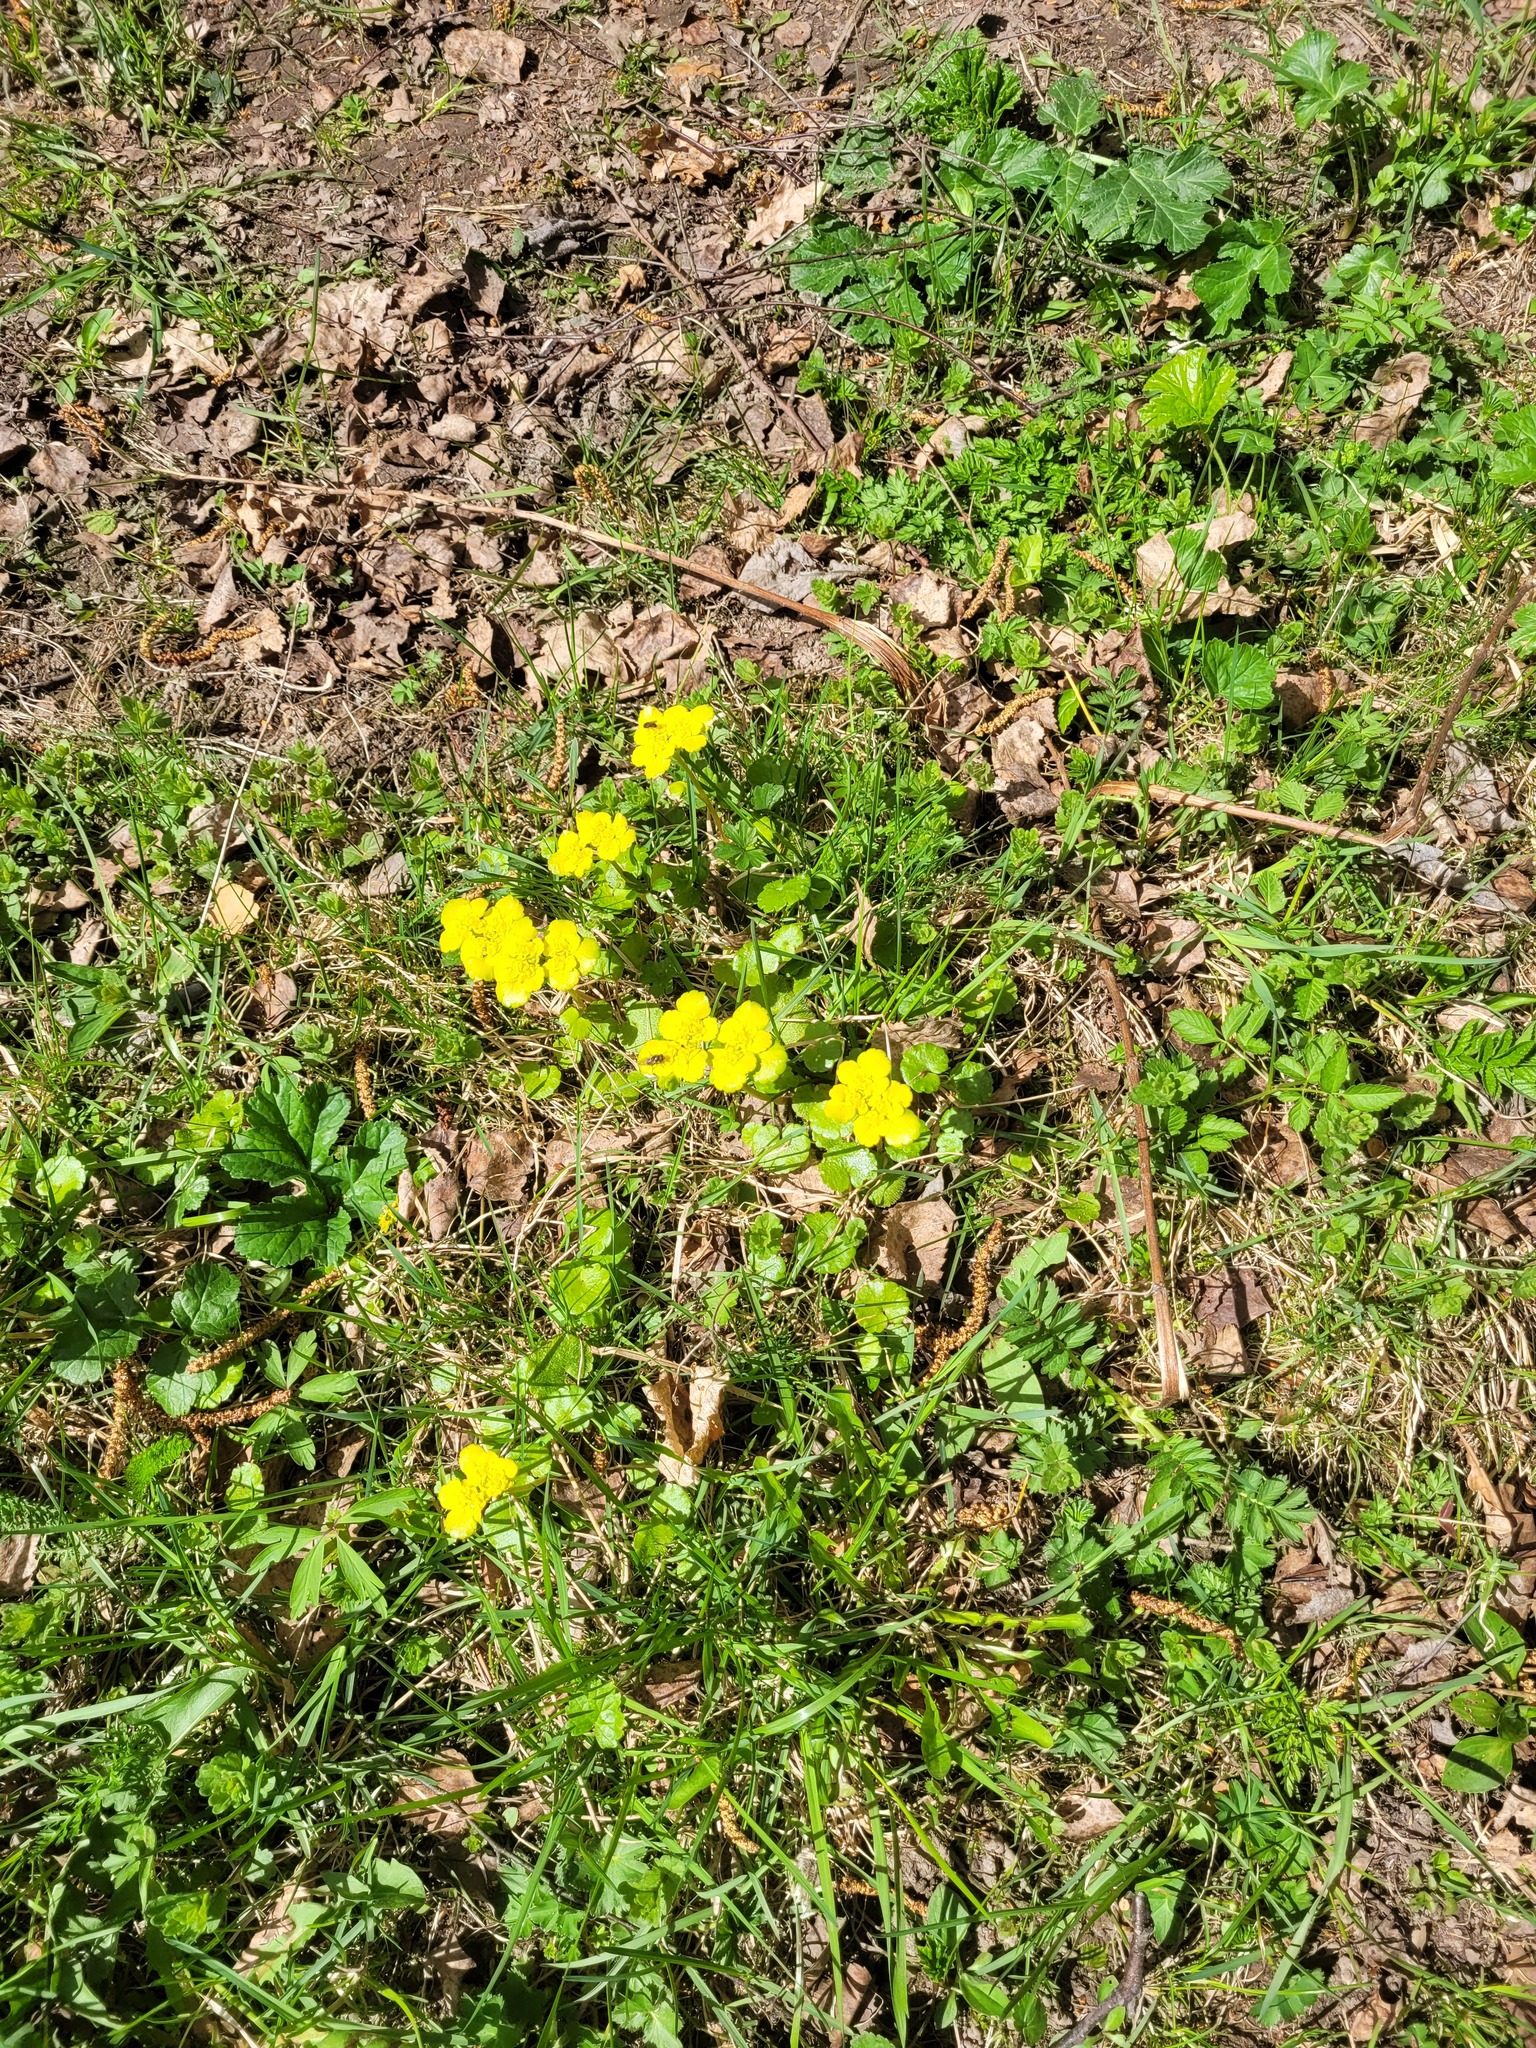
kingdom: Plantae
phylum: Tracheophyta
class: Magnoliopsida
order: Saxifragales
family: Saxifragaceae
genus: Chrysosplenium
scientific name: Chrysosplenium alternifolium
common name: Alternate-leaved golden-saxifrage
